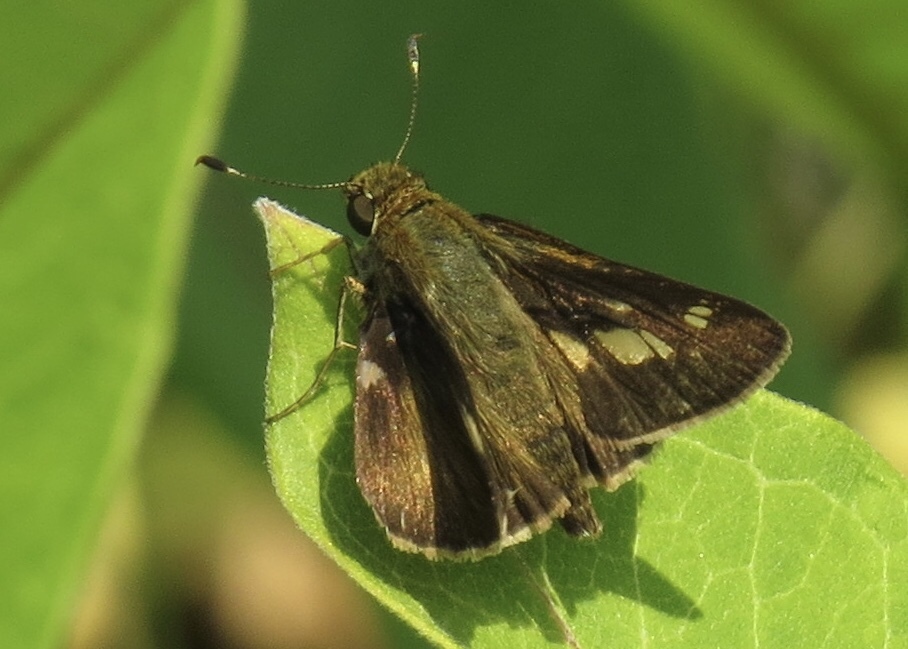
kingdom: Animalia
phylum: Arthropoda
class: Insecta
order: Lepidoptera
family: Hesperiidae
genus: Vernia
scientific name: Vernia verna
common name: Little glassywing
